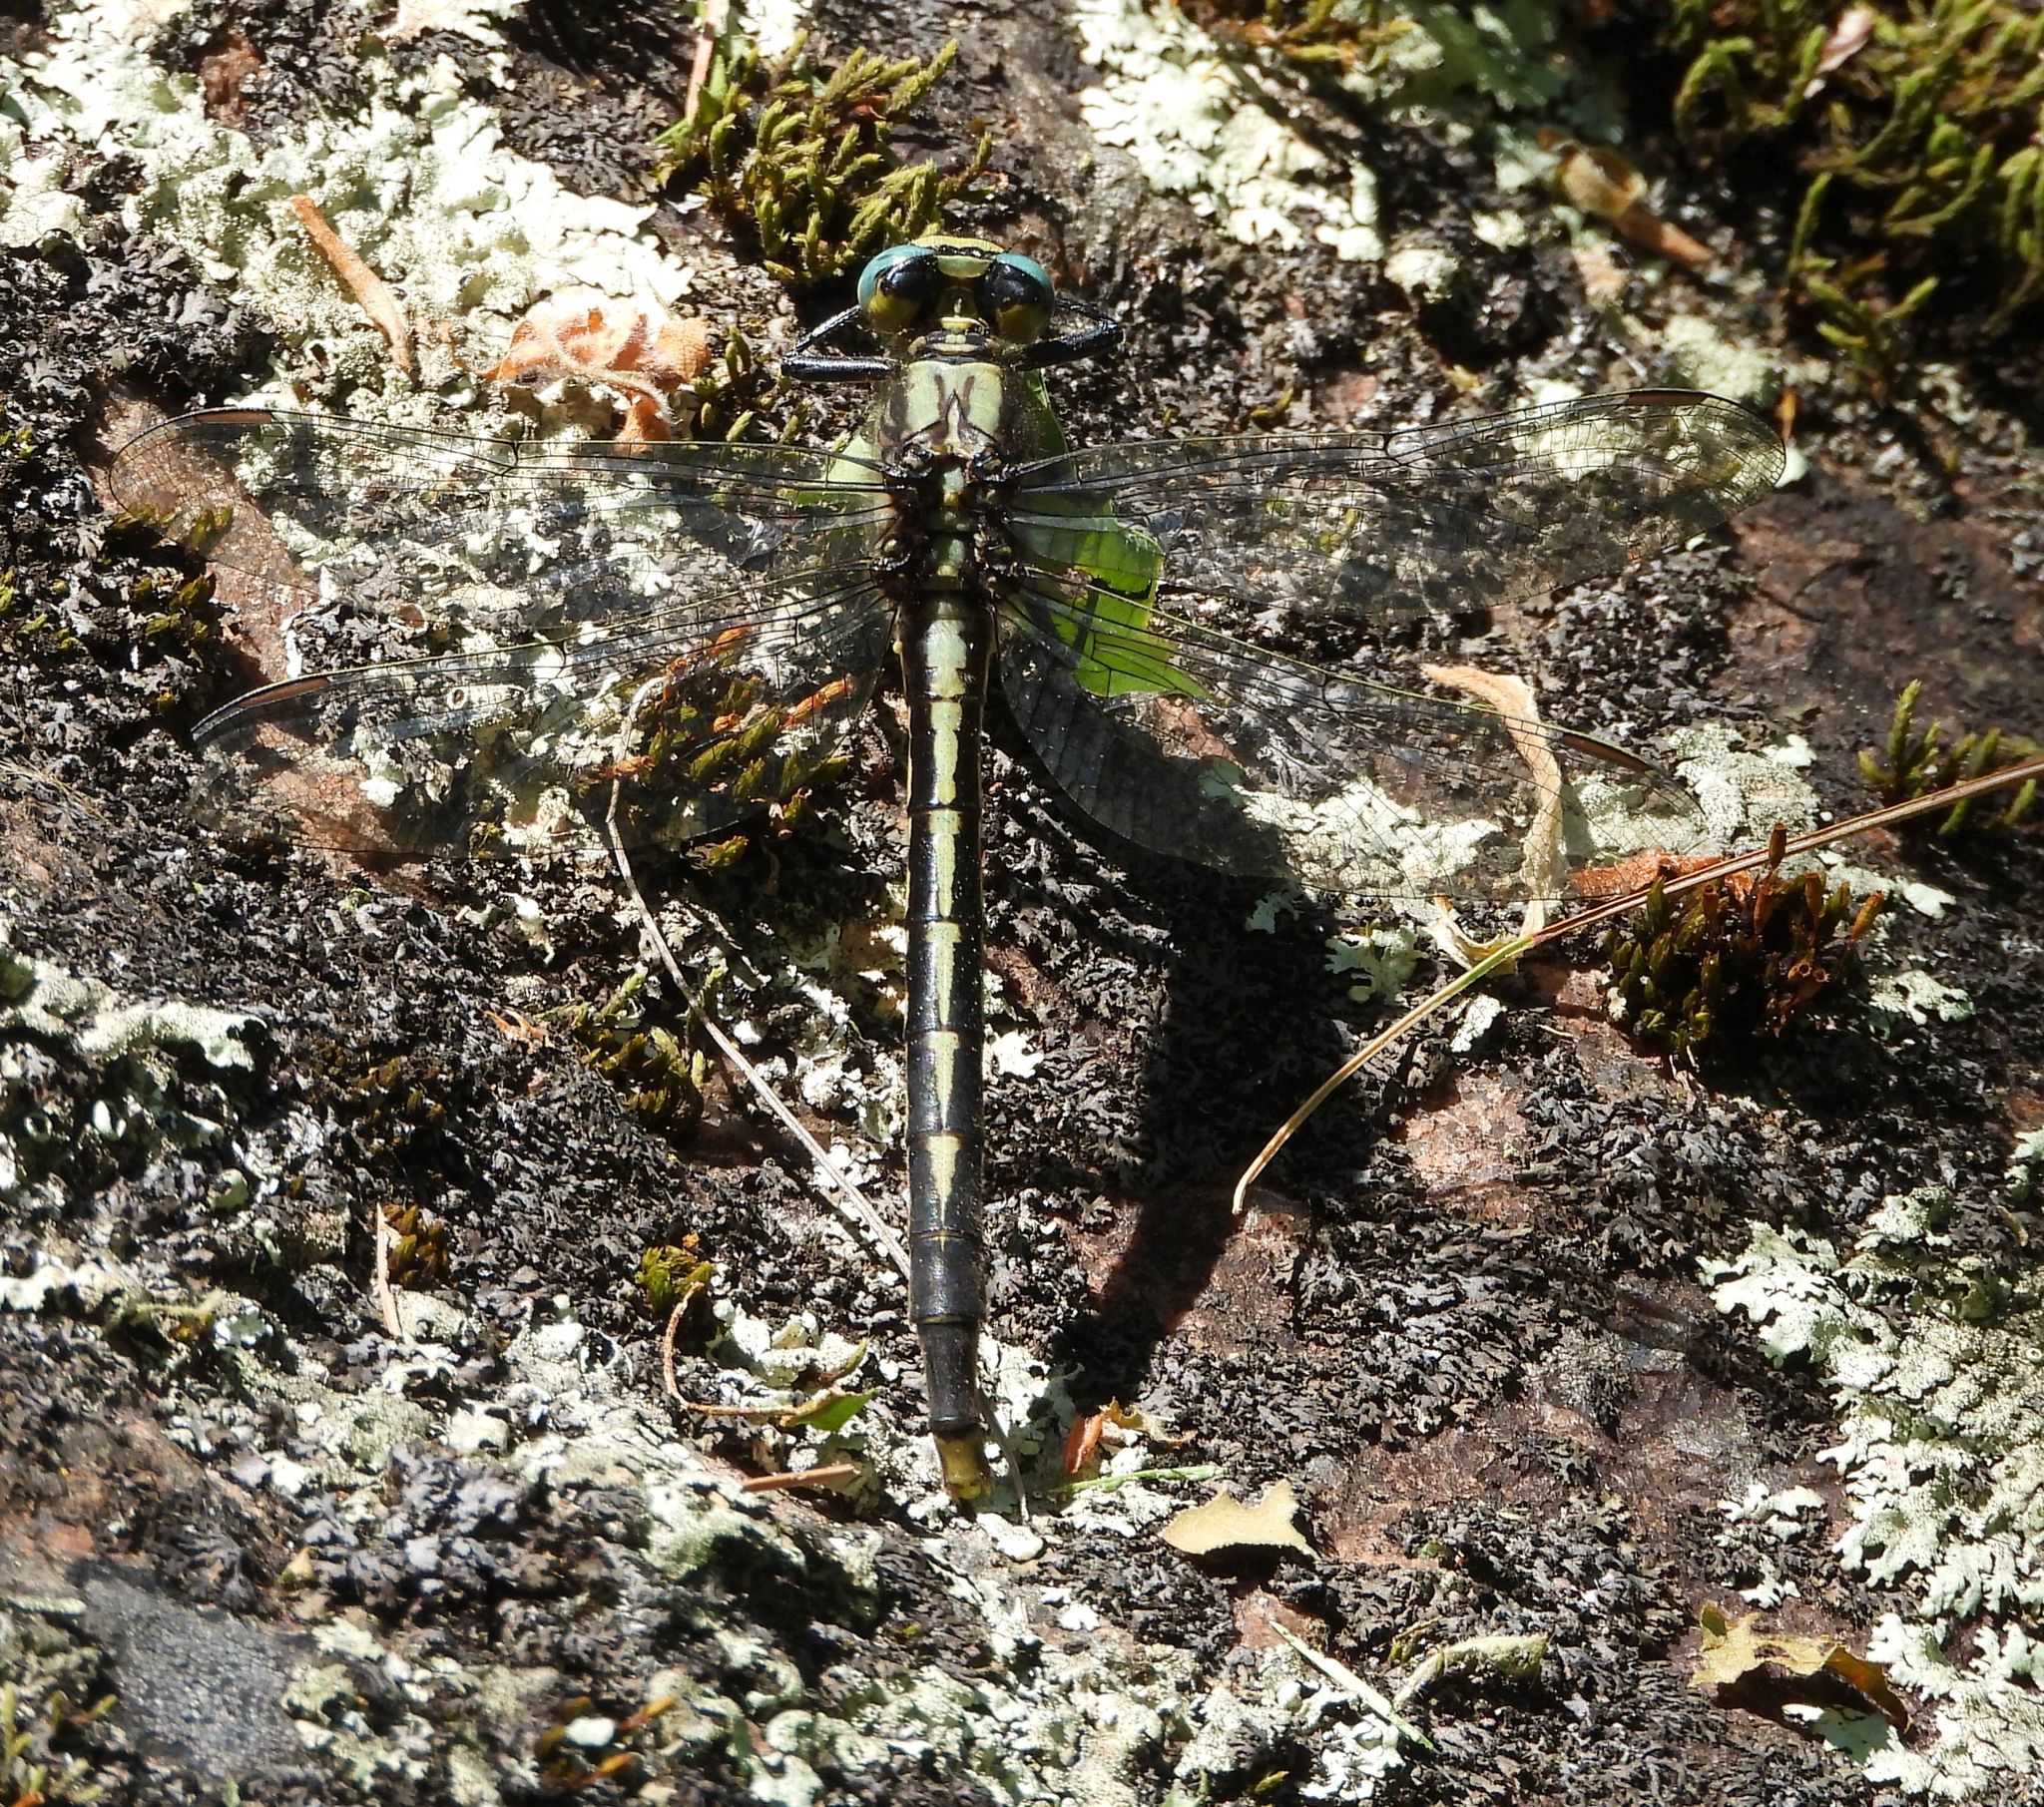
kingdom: Animalia
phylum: Arthropoda
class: Insecta
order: Odonata
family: Gomphidae
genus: Arigomphus
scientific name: Arigomphus furcifer
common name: Lilypad clubtail
